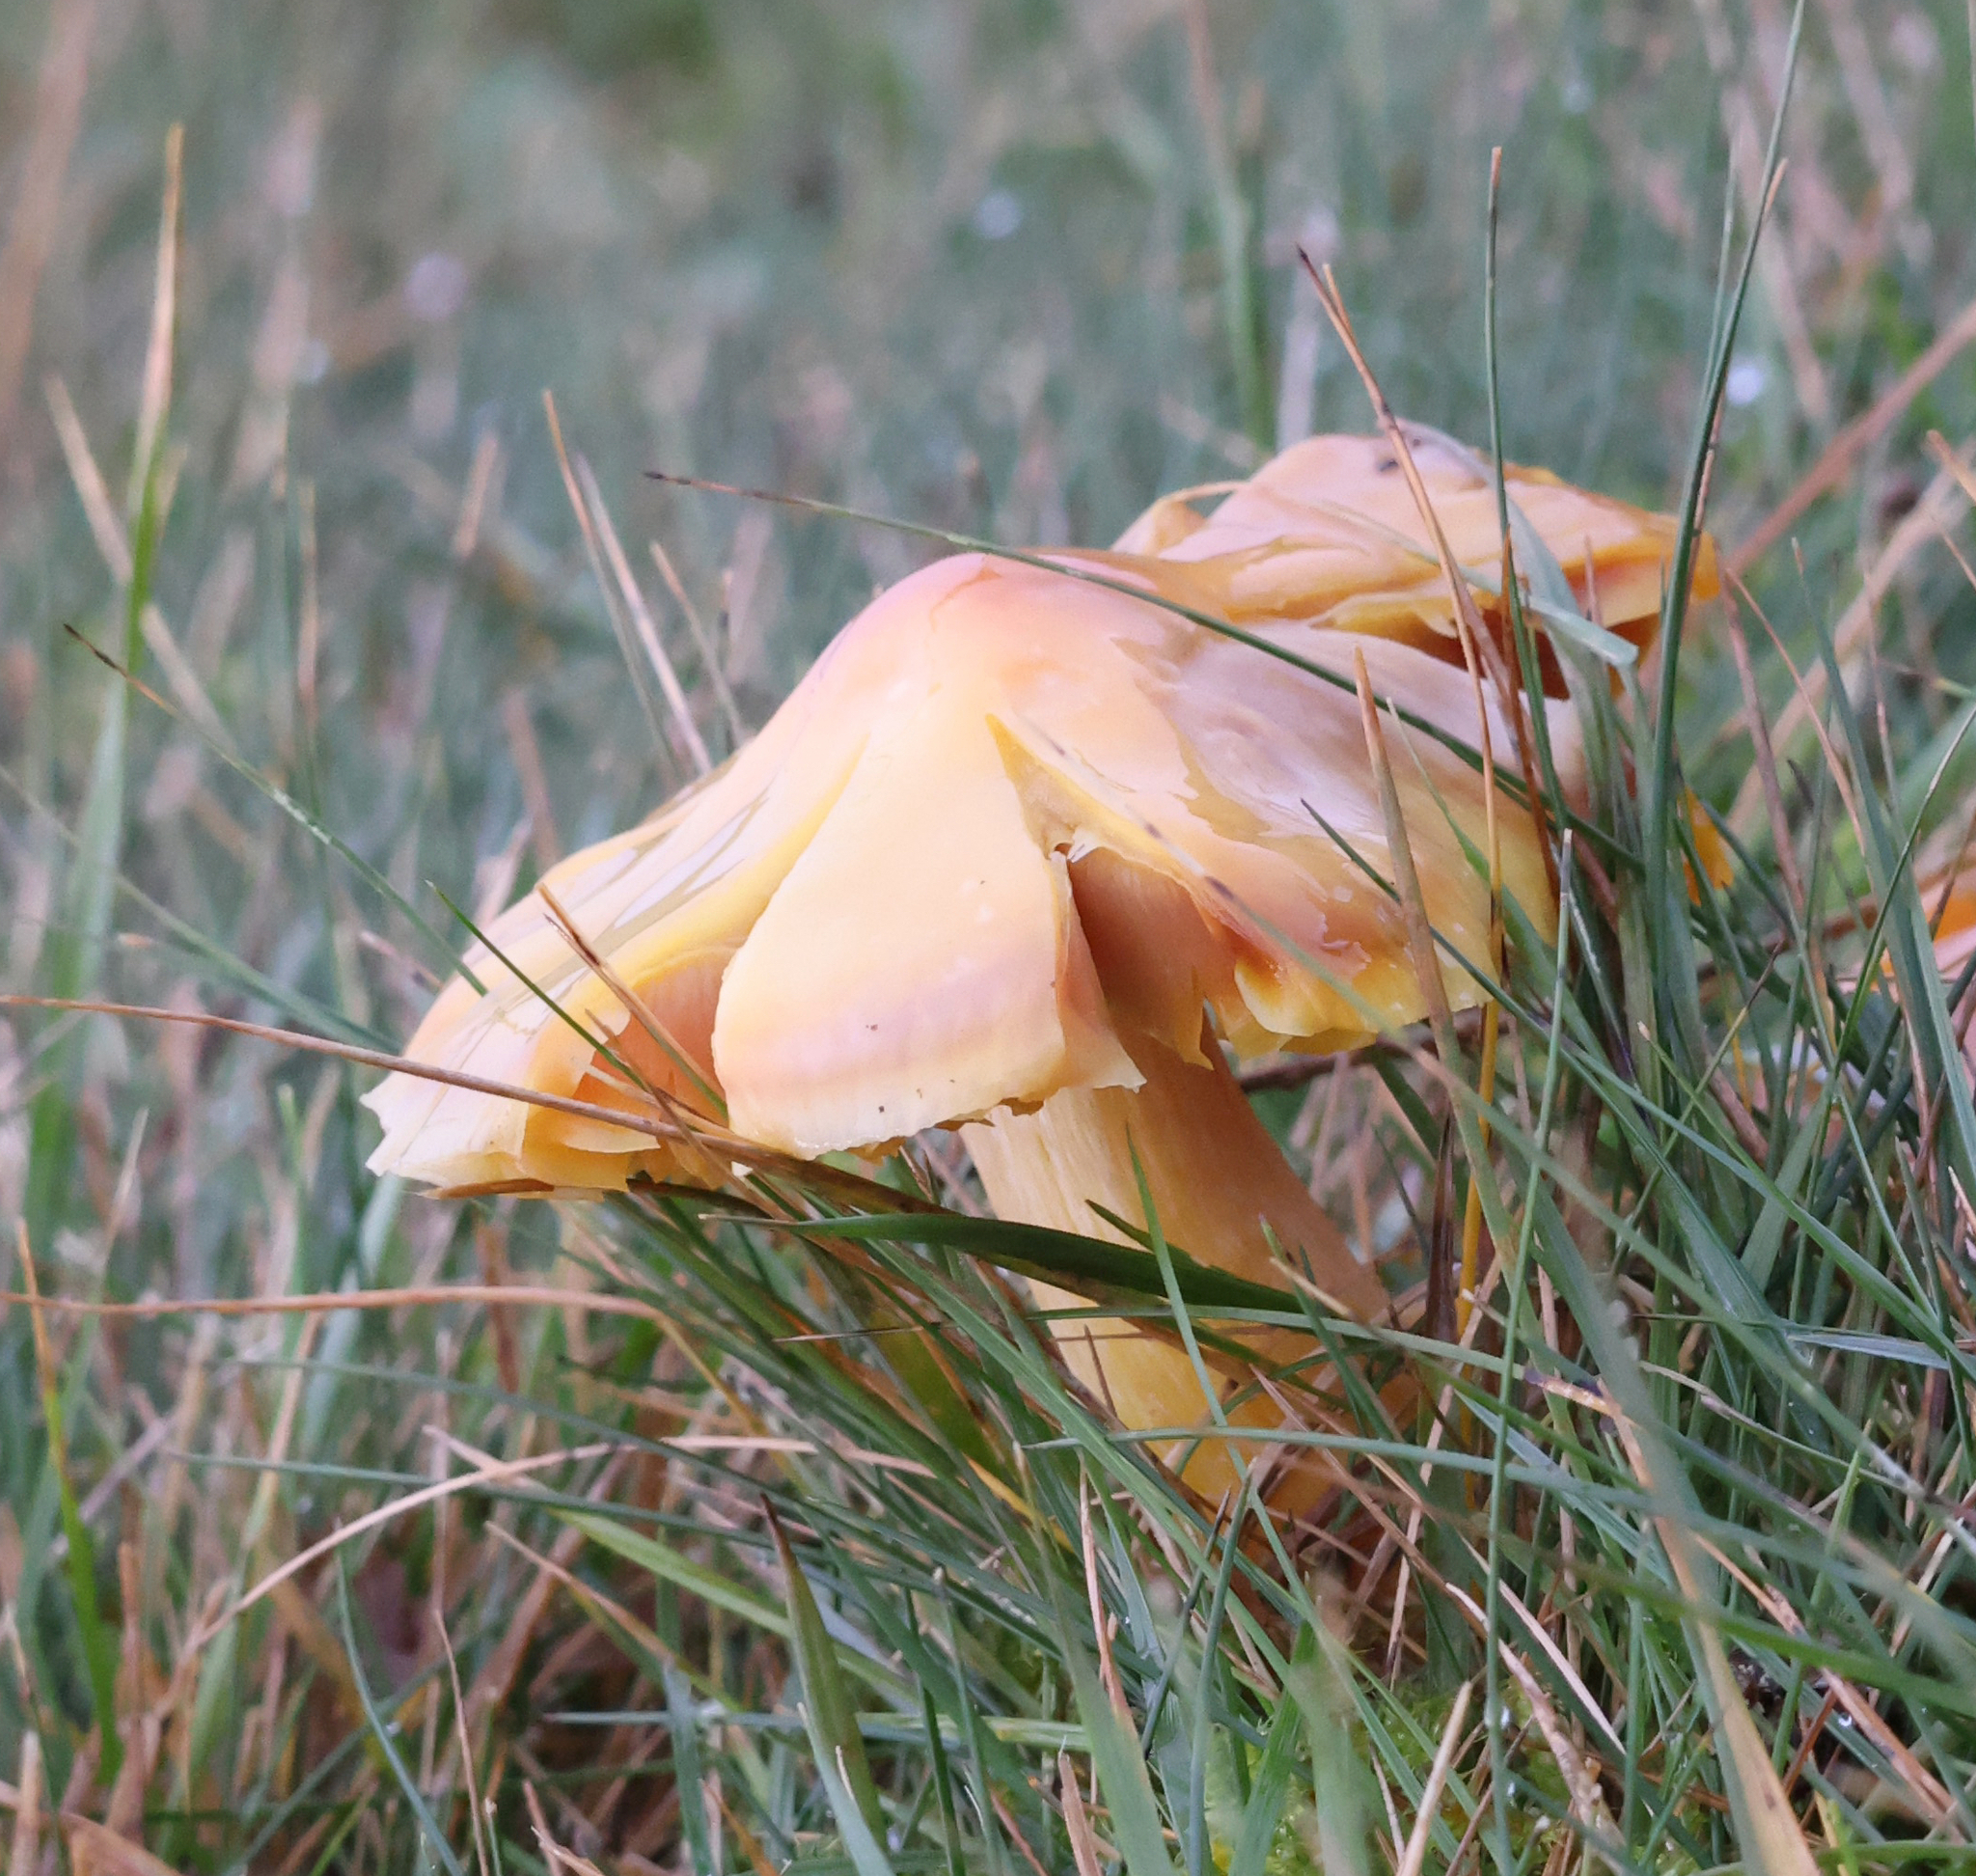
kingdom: Fungi
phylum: Basidiomycota
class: Agaricomycetes
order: Agaricales
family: Hygrophoraceae
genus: Hygrocybe
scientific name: Hygrocybe punicea
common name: Crimson waxcap
